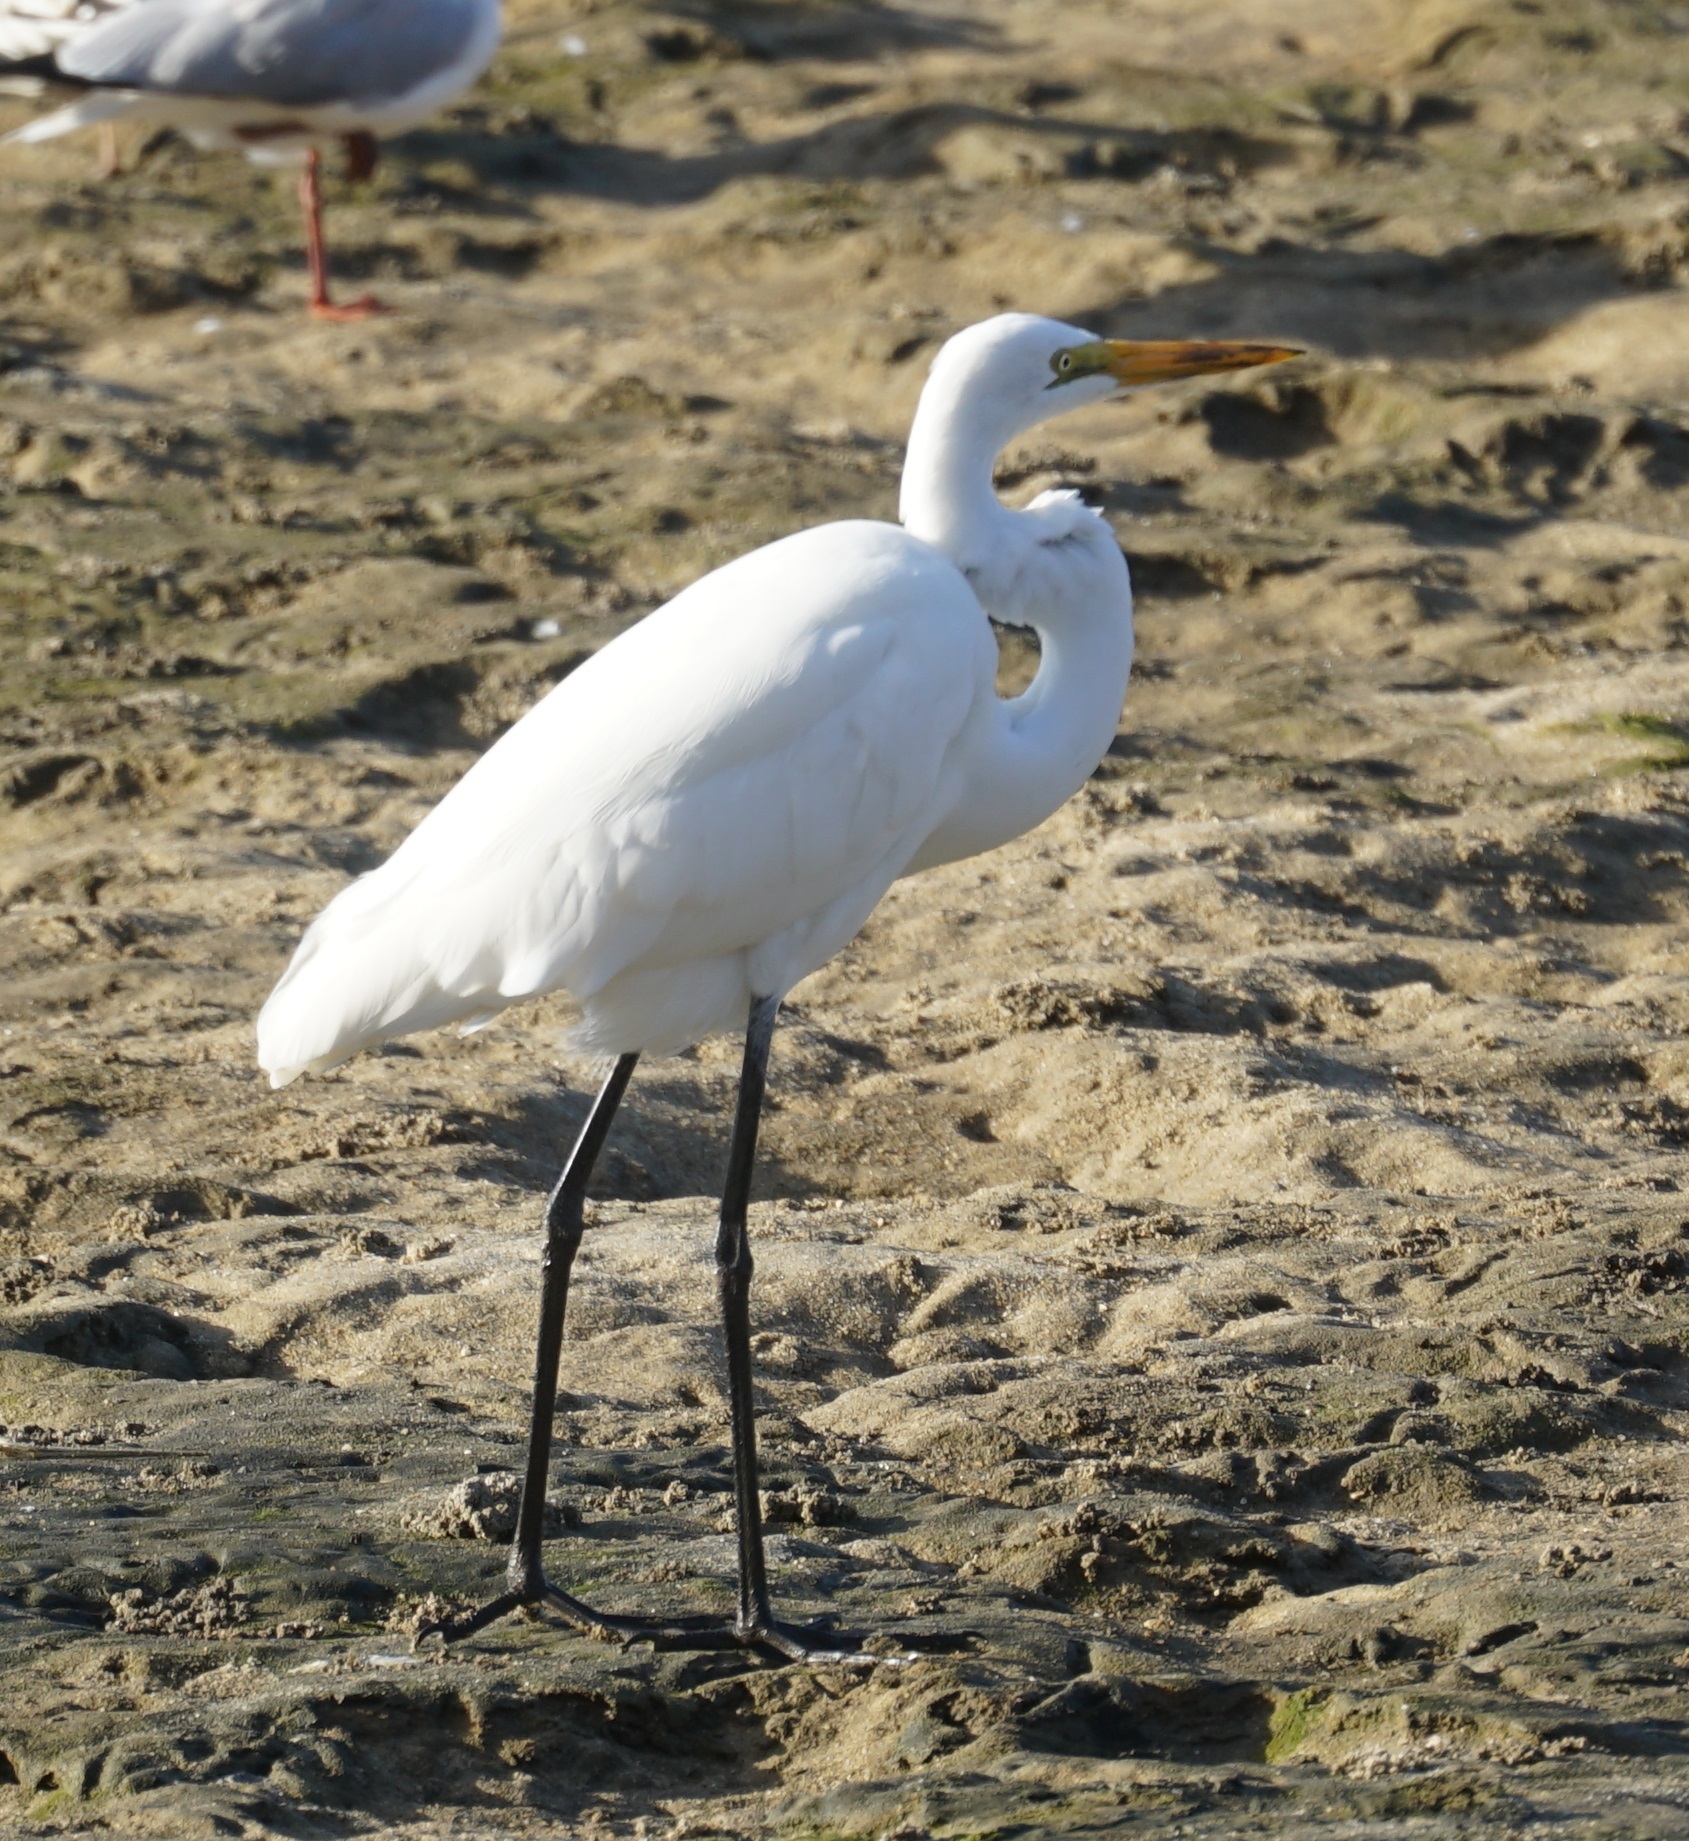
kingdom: Animalia
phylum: Chordata
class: Aves
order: Pelecaniformes
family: Ardeidae
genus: Ardea
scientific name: Ardea modesta
